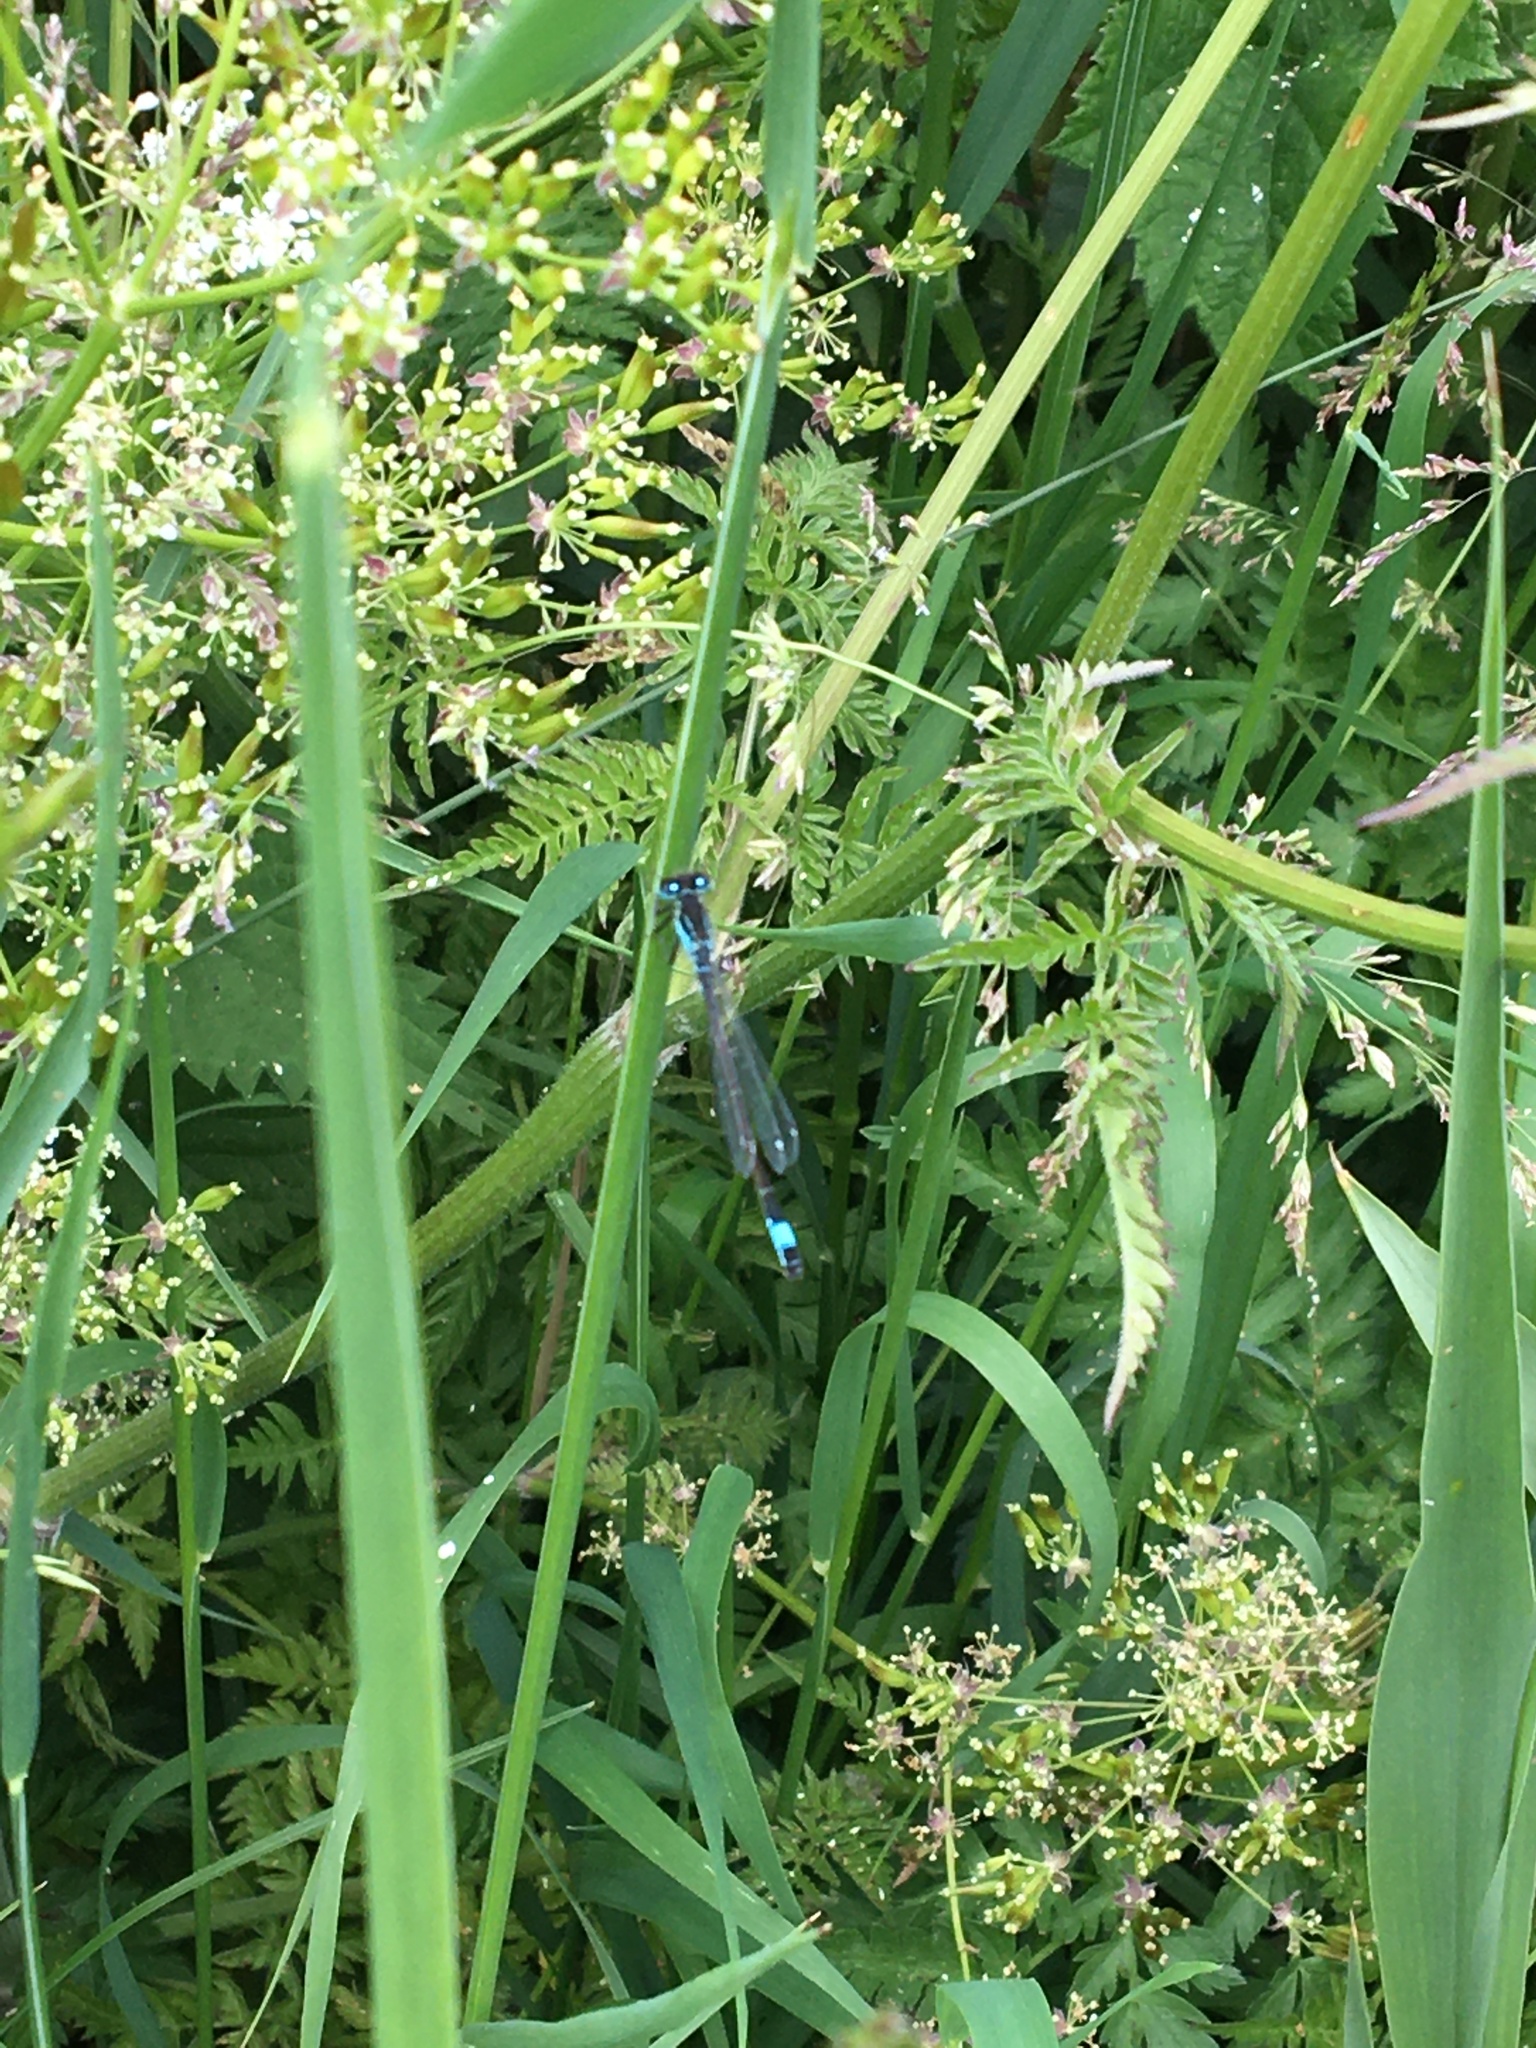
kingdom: Animalia
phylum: Arthropoda
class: Insecta
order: Odonata
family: Coenagrionidae
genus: Ischnura
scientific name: Ischnura elegans
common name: Blue-tailed damselfly
